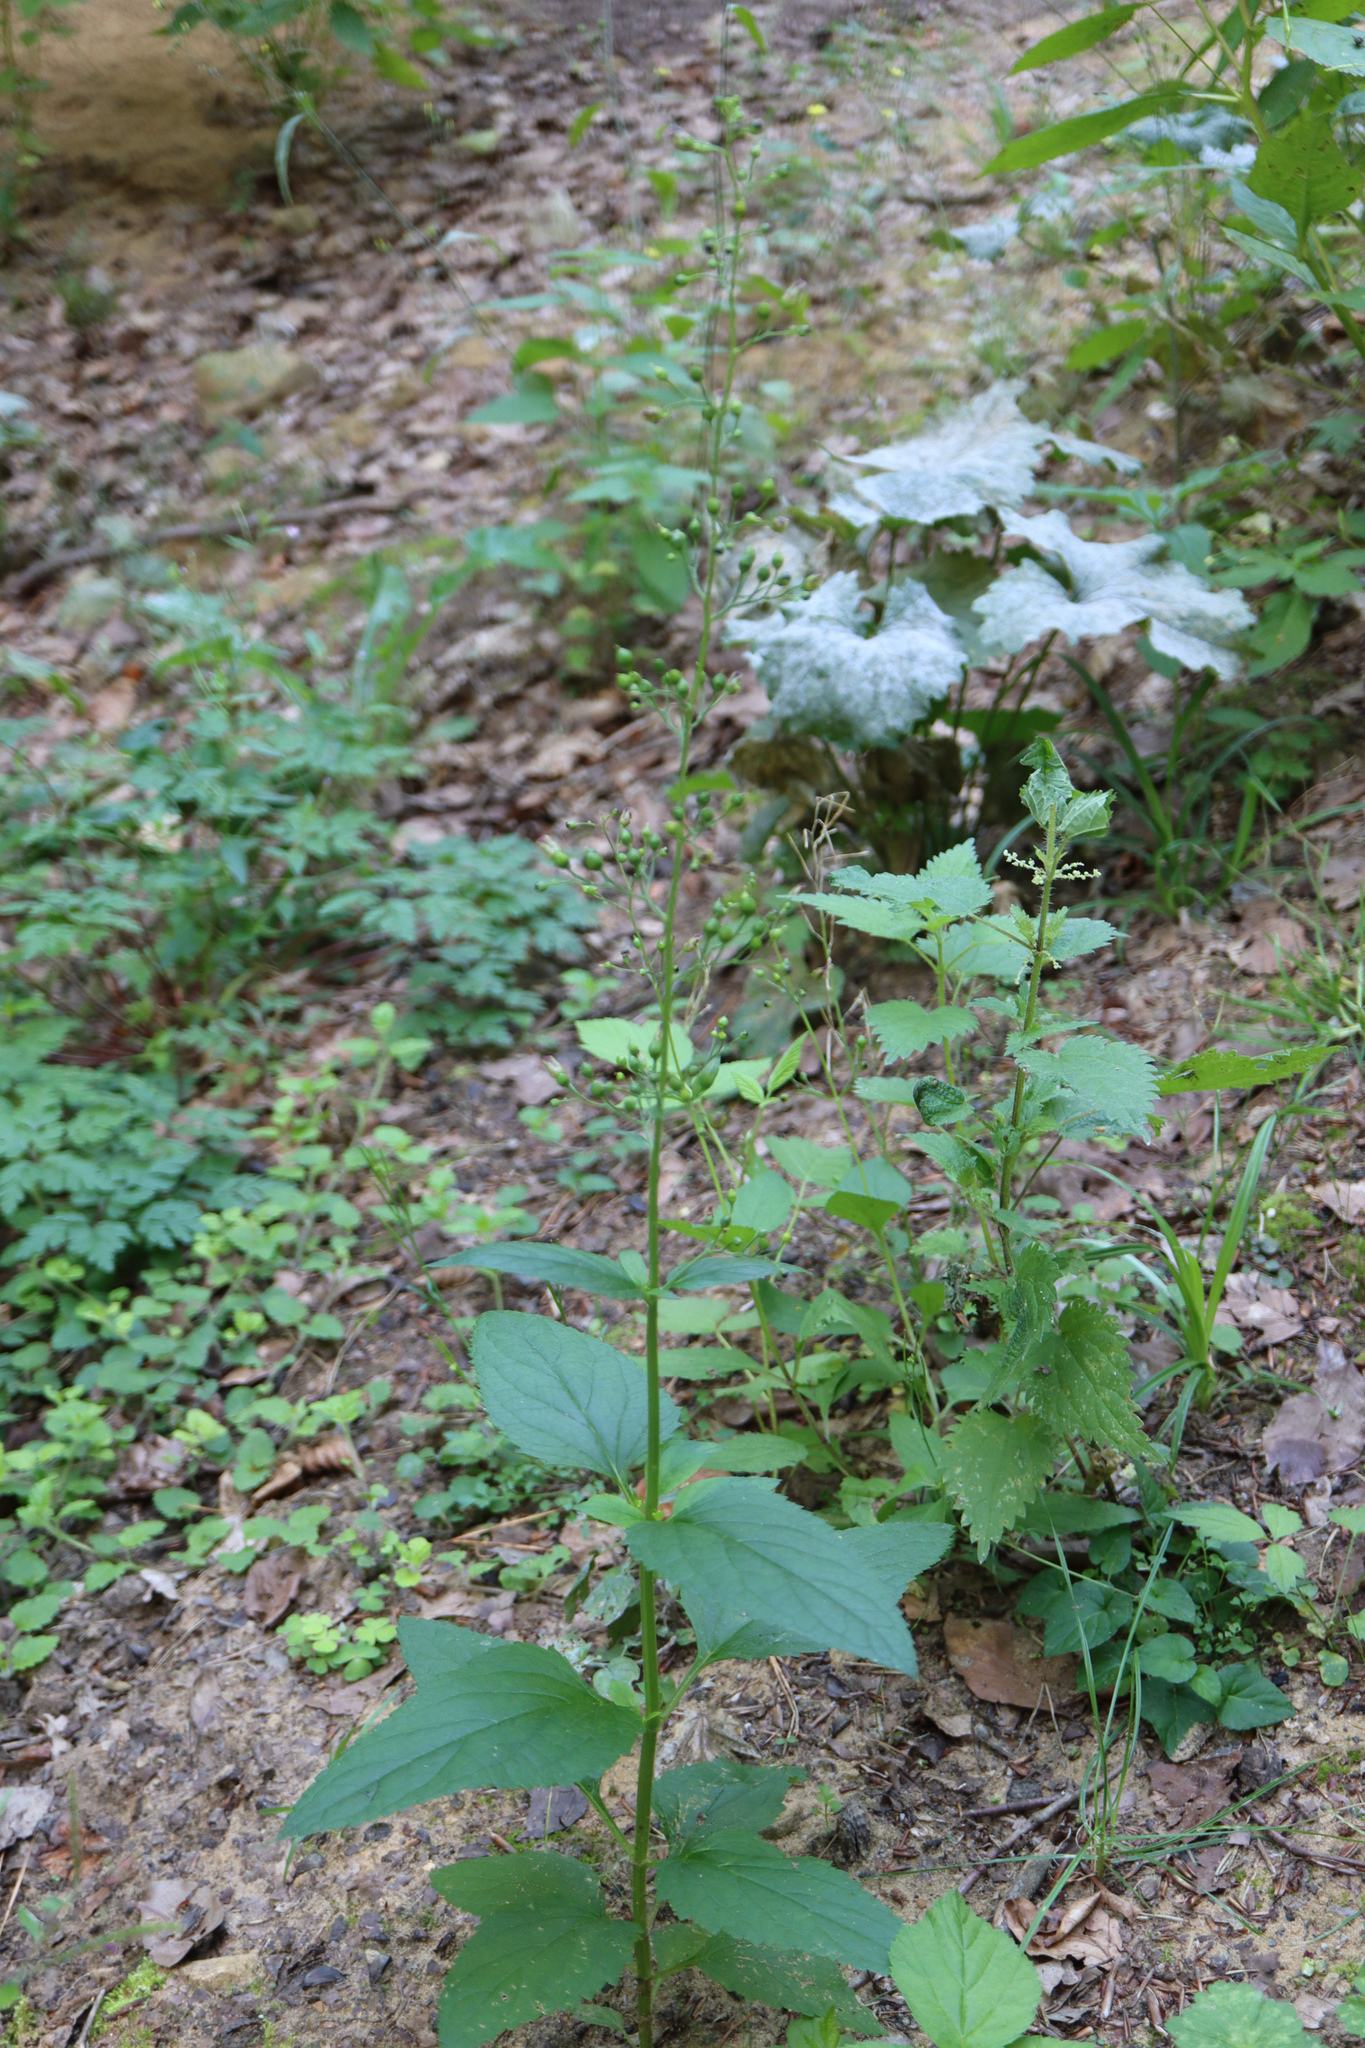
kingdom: Plantae
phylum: Tracheophyta
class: Magnoliopsida
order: Lamiales
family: Scrophulariaceae
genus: Scrophularia
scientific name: Scrophularia nodosa
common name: Common figwort
